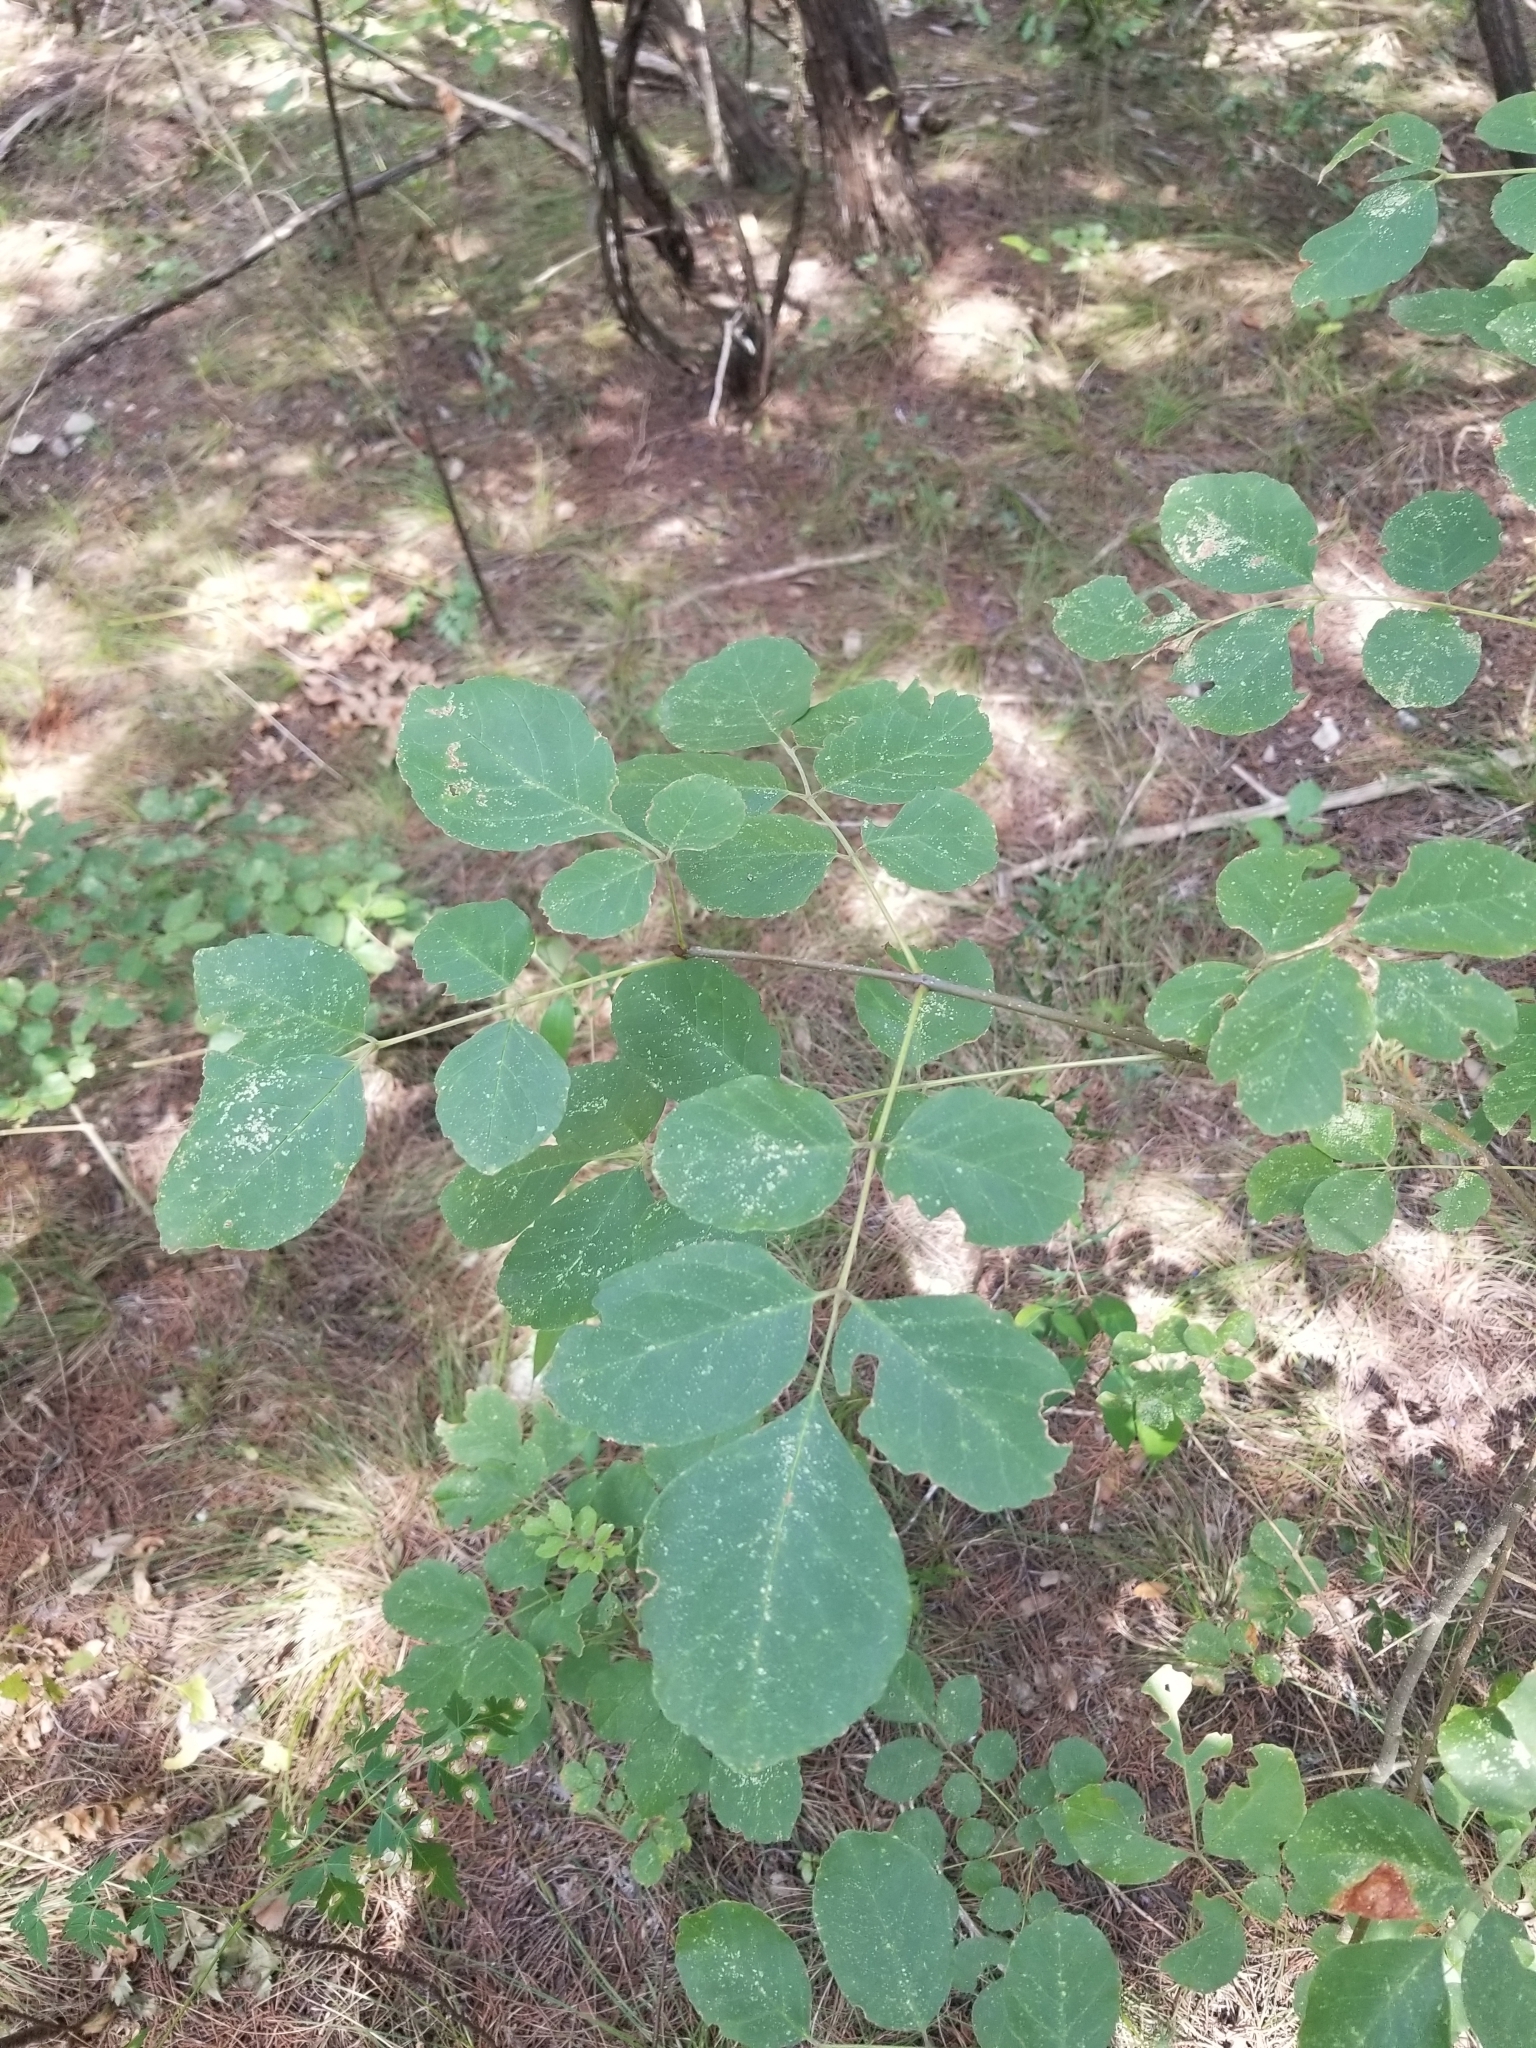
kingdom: Plantae
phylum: Tracheophyta
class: Magnoliopsida
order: Lamiales
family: Oleaceae
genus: Fraxinus
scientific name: Fraxinus albicans
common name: Texas ash
